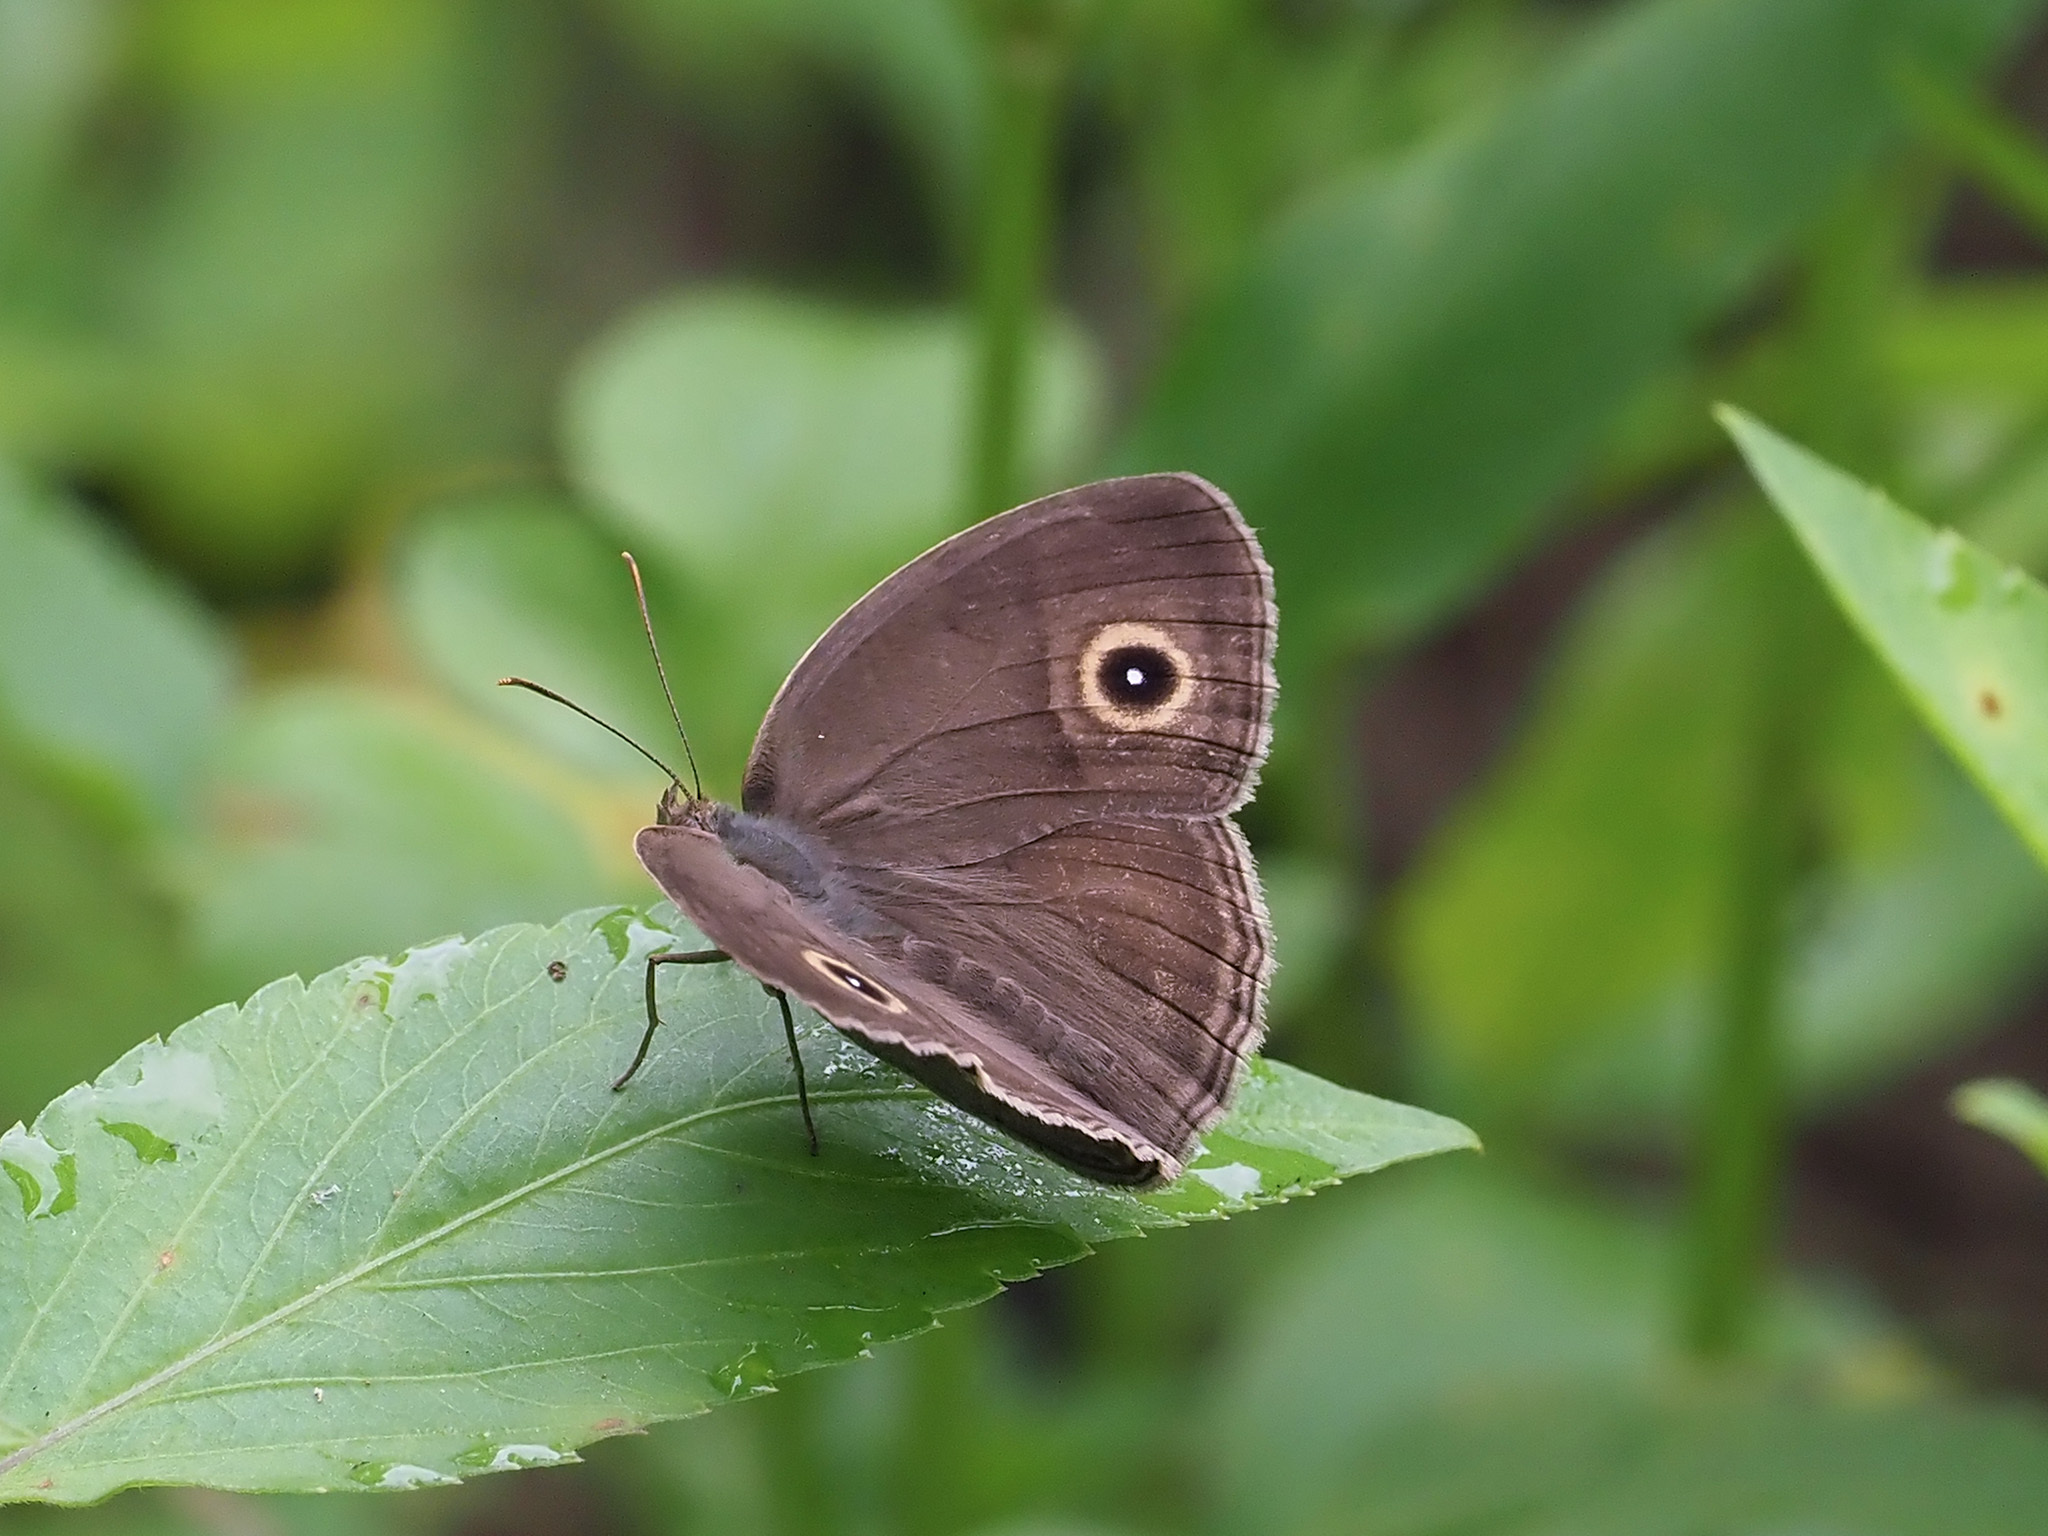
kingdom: Animalia
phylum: Arthropoda
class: Insecta
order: Lepidoptera
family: Nymphalidae
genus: Mycalesis
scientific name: Mycalesis perseoides
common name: Burmese bushbrown
